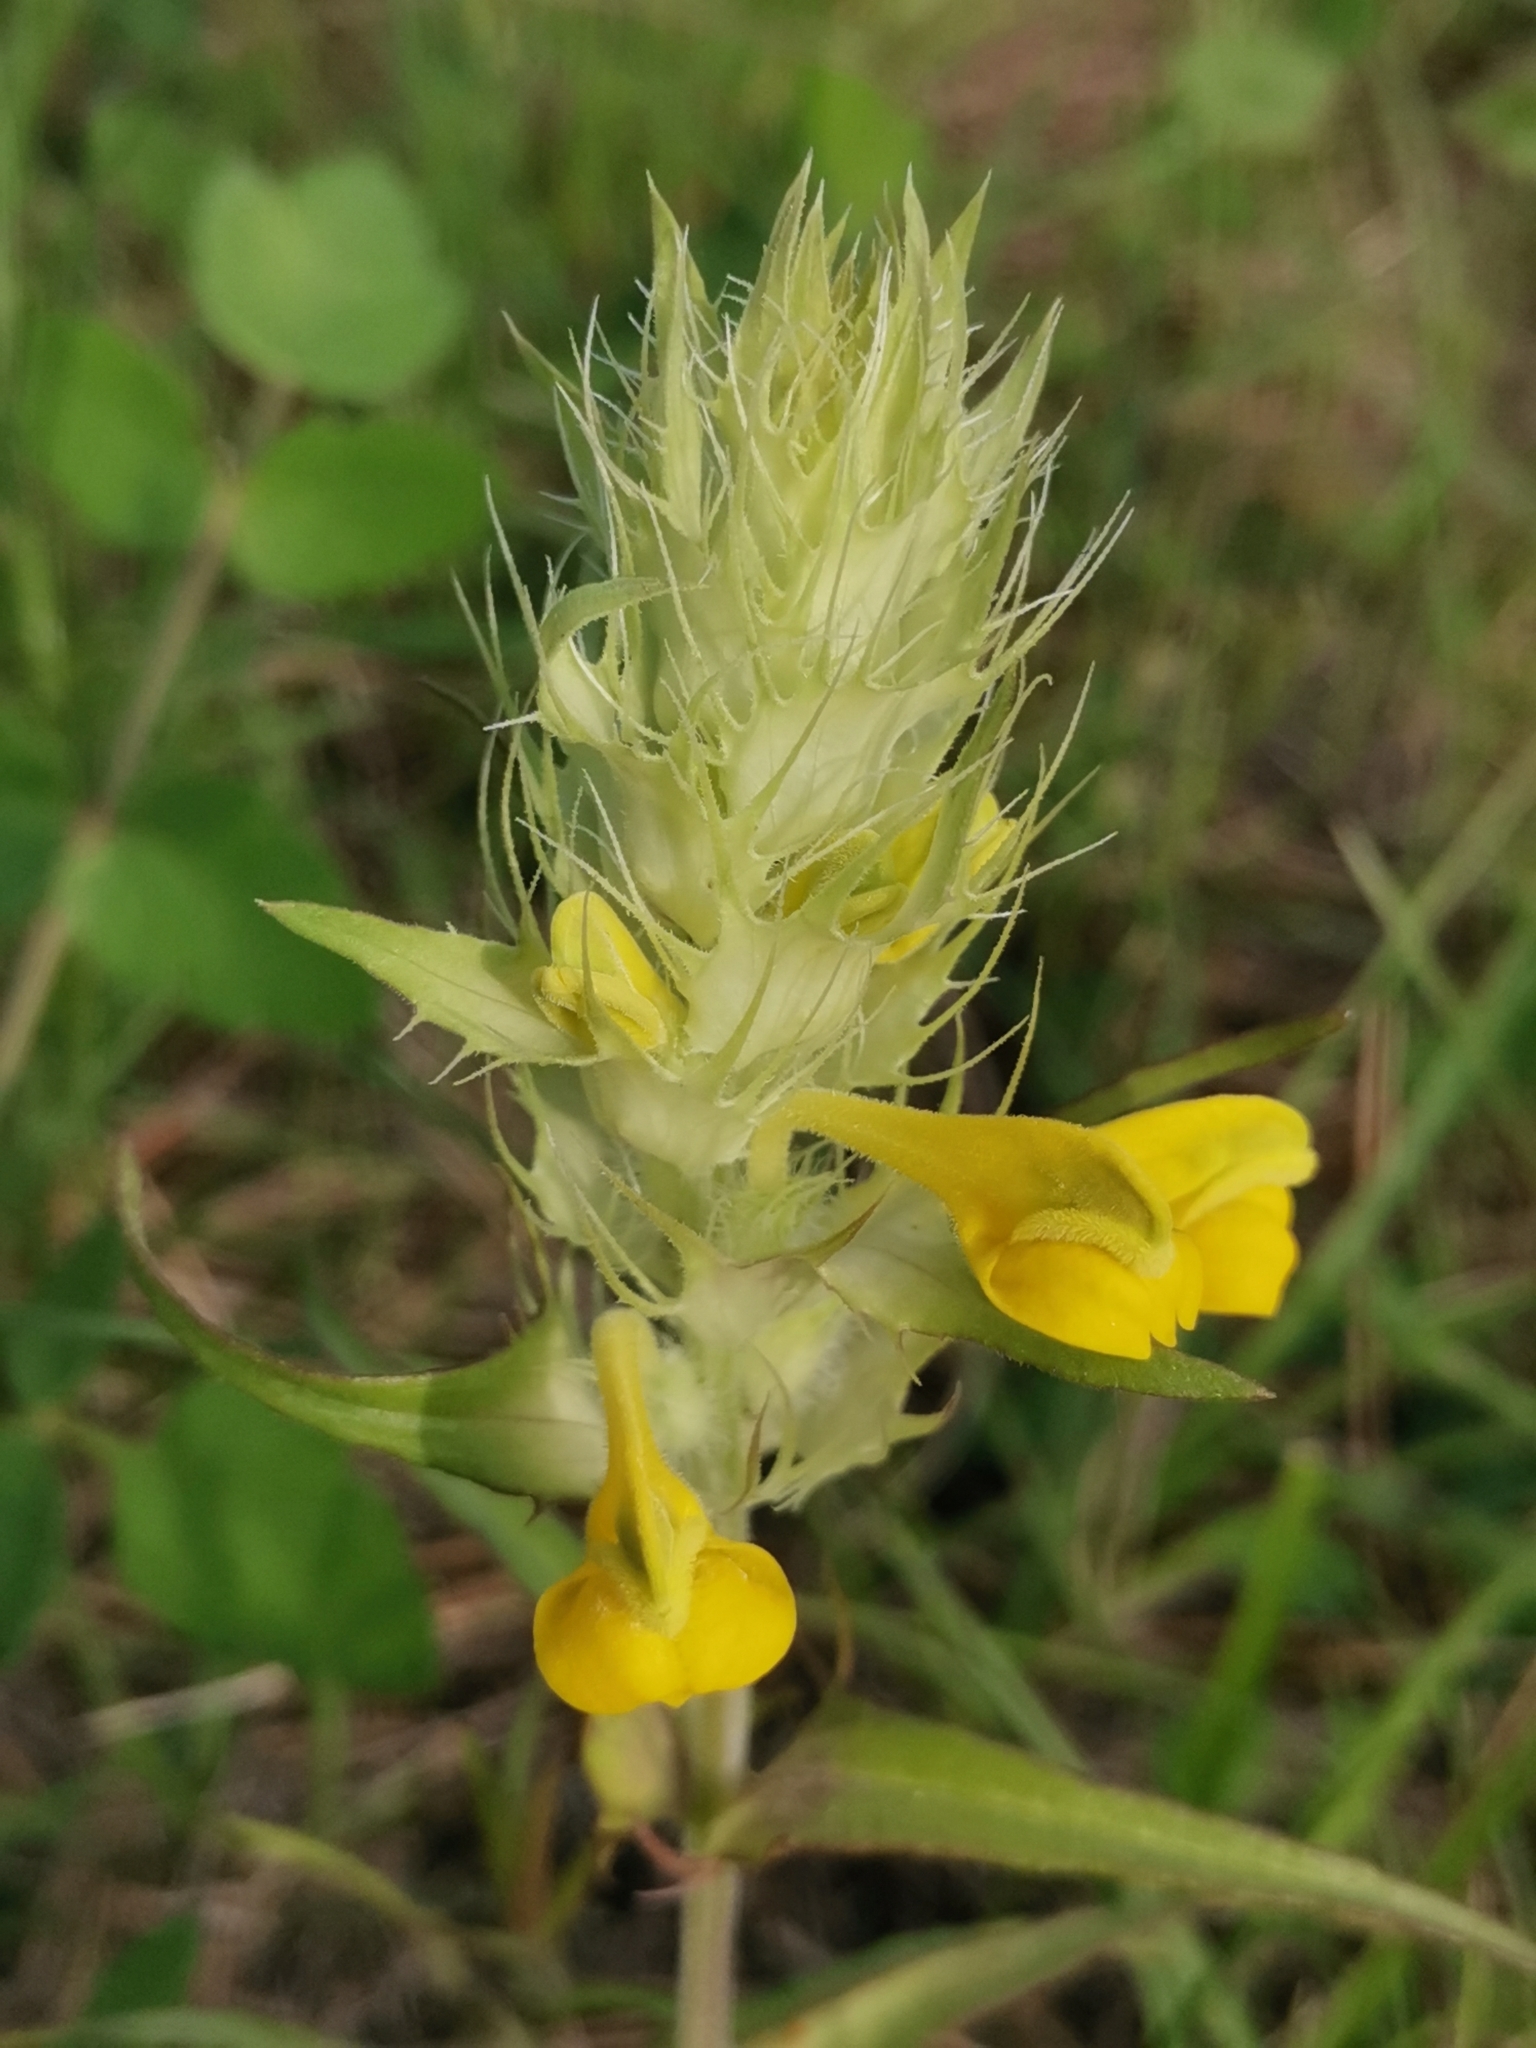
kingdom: Plantae
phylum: Tracheophyta
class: Magnoliopsida
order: Lamiales
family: Orobanchaceae
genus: Melampyrum
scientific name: Melampyrum barbatum
